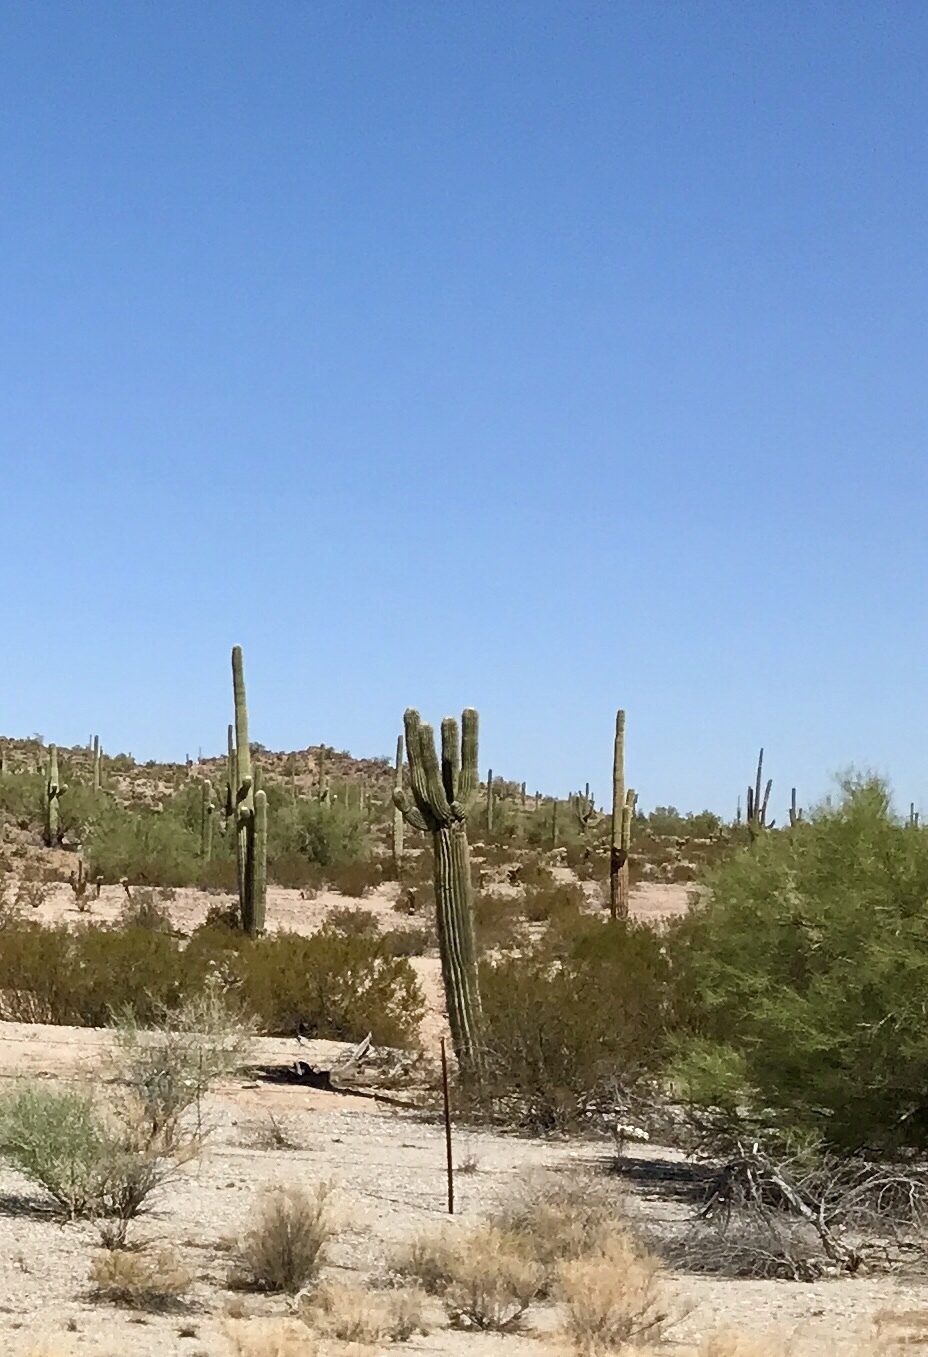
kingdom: Plantae
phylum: Tracheophyta
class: Magnoliopsida
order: Caryophyllales
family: Cactaceae
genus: Carnegiea
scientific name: Carnegiea gigantea
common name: Saguaro
